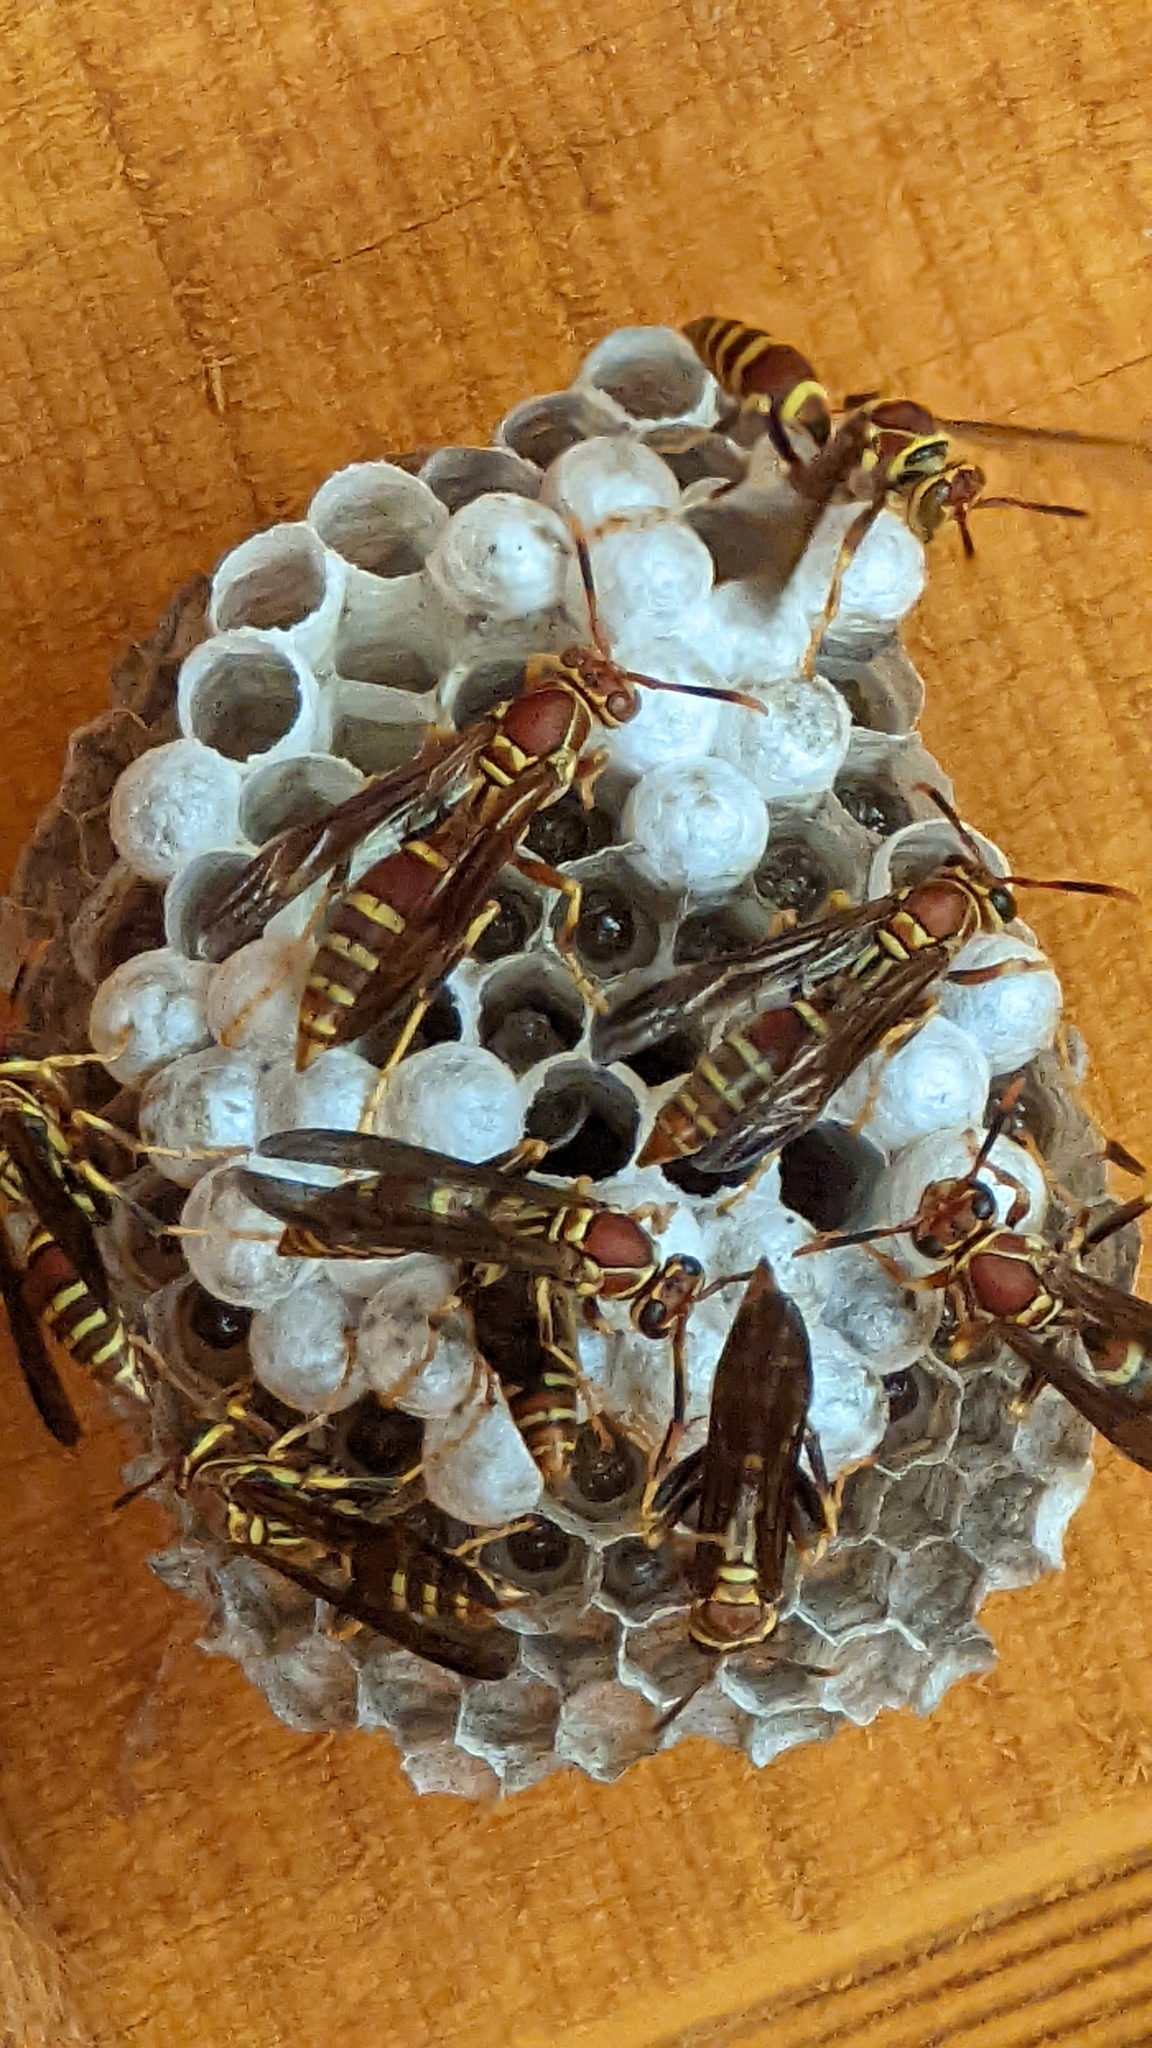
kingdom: Animalia
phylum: Arthropoda
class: Insecta
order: Hymenoptera
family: Eumenidae
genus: Polistes
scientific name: Polistes exclamans
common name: Paper wasp
